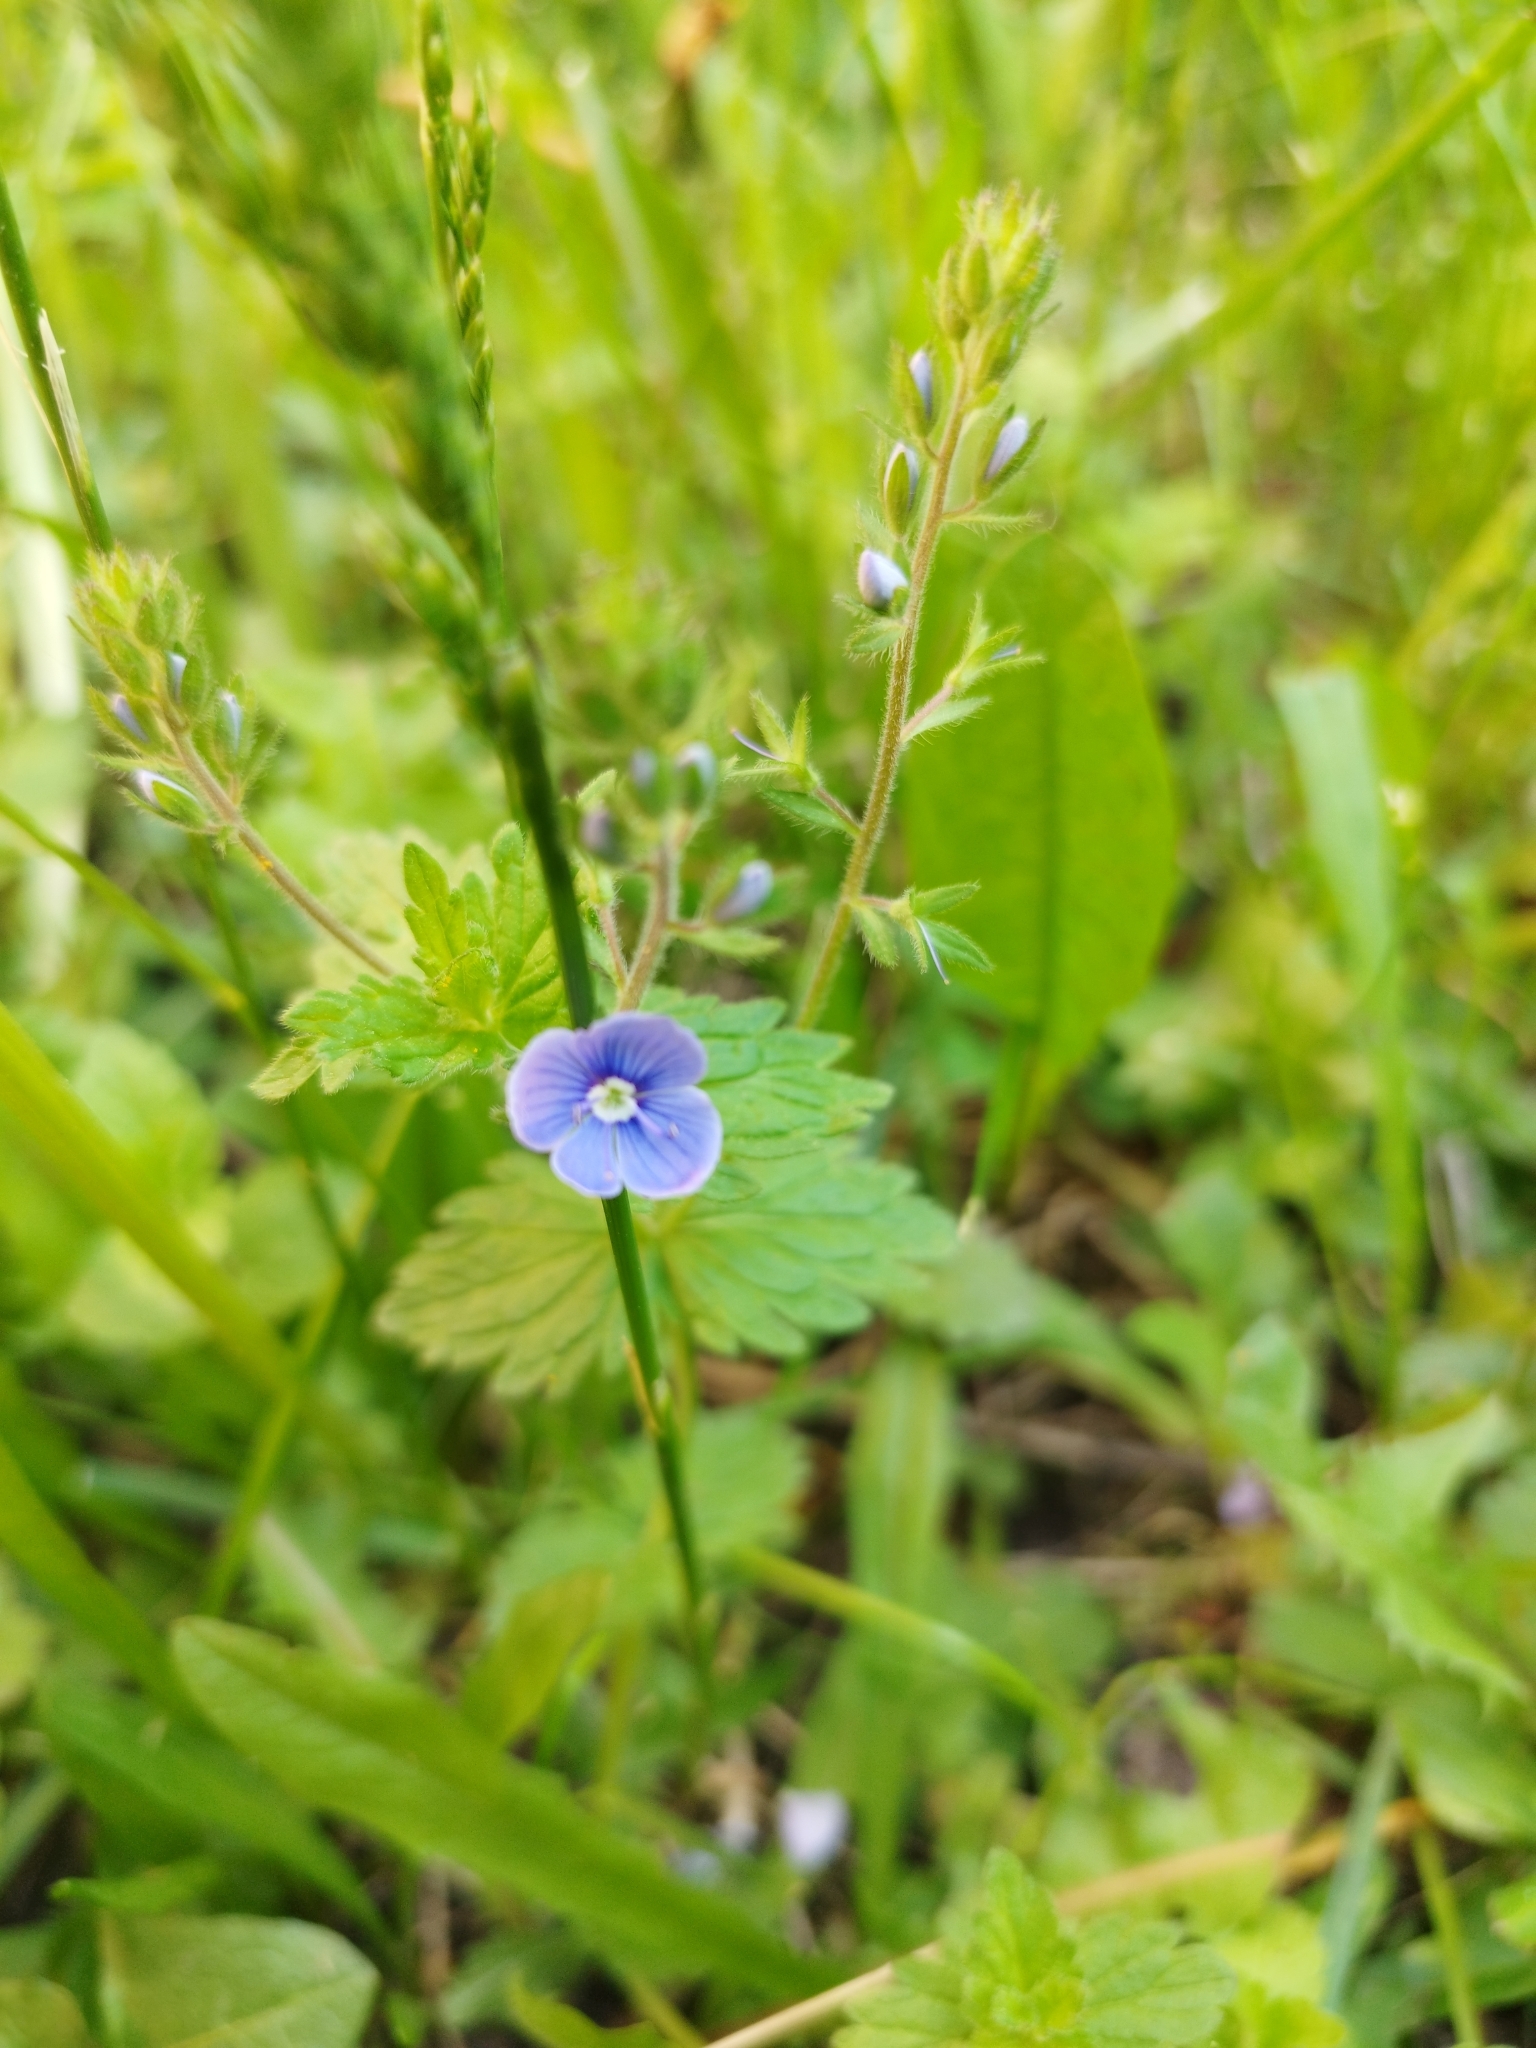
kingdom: Plantae
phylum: Tracheophyta
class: Magnoliopsida
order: Lamiales
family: Plantaginaceae
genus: Veronica
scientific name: Veronica chamaedrys
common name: Germander speedwell
